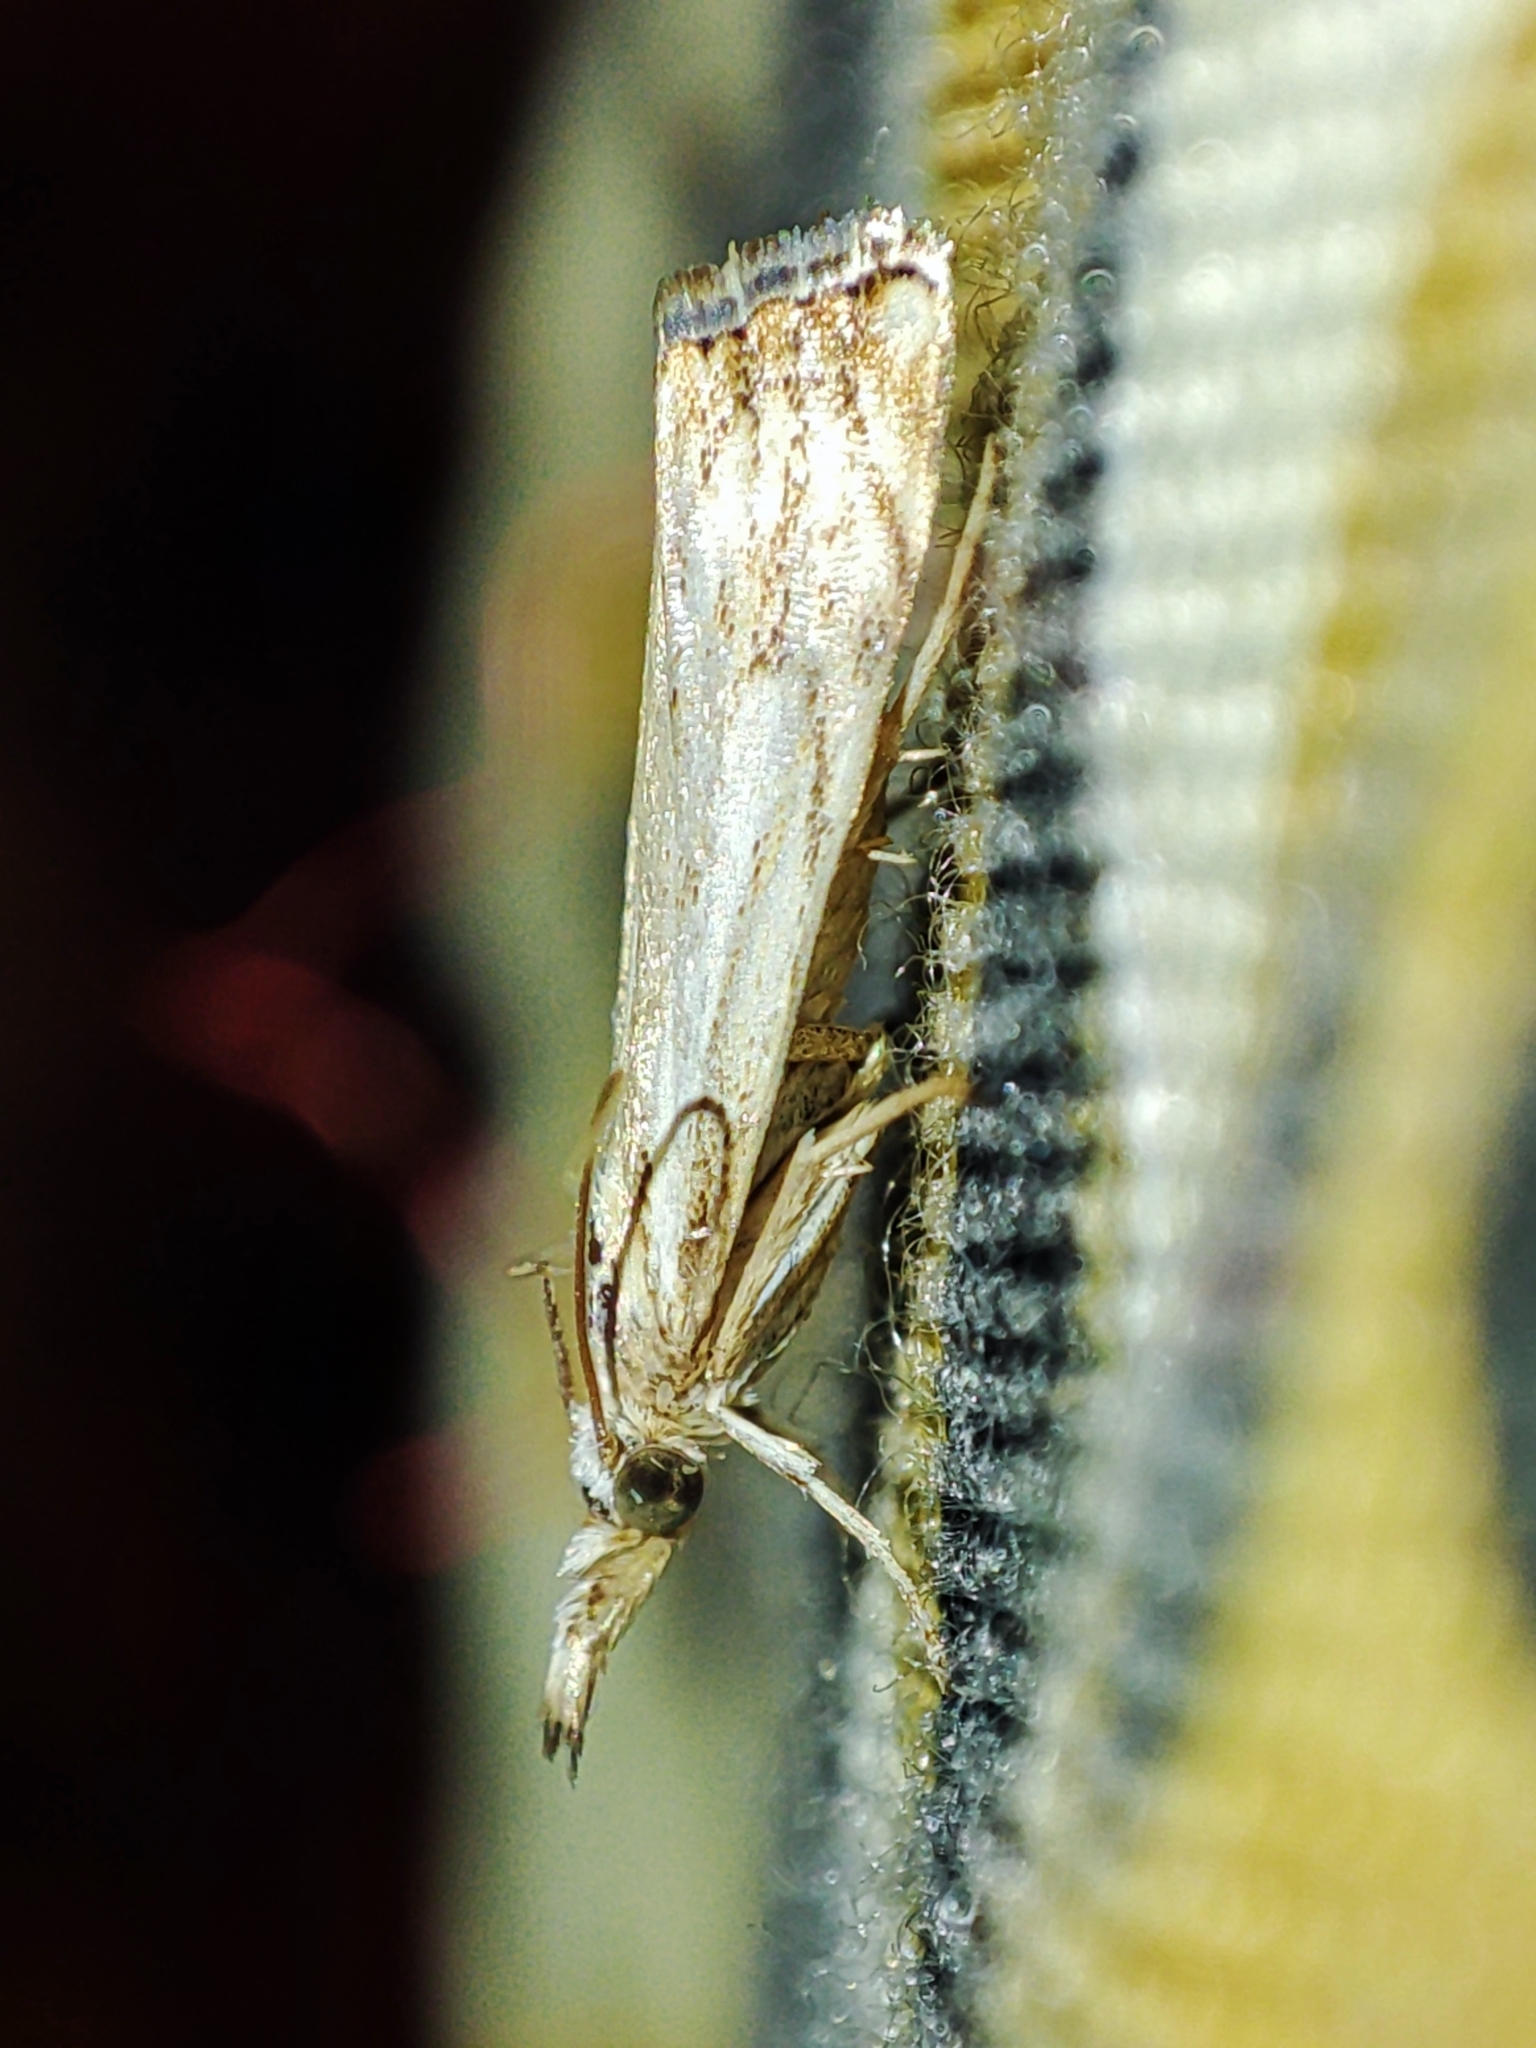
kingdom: Animalia
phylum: Arthropoda
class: Insecta
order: Lepidoptera
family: Crambidae
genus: Catoptria
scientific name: Catoptria falsella
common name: Chequered grass-veneer
